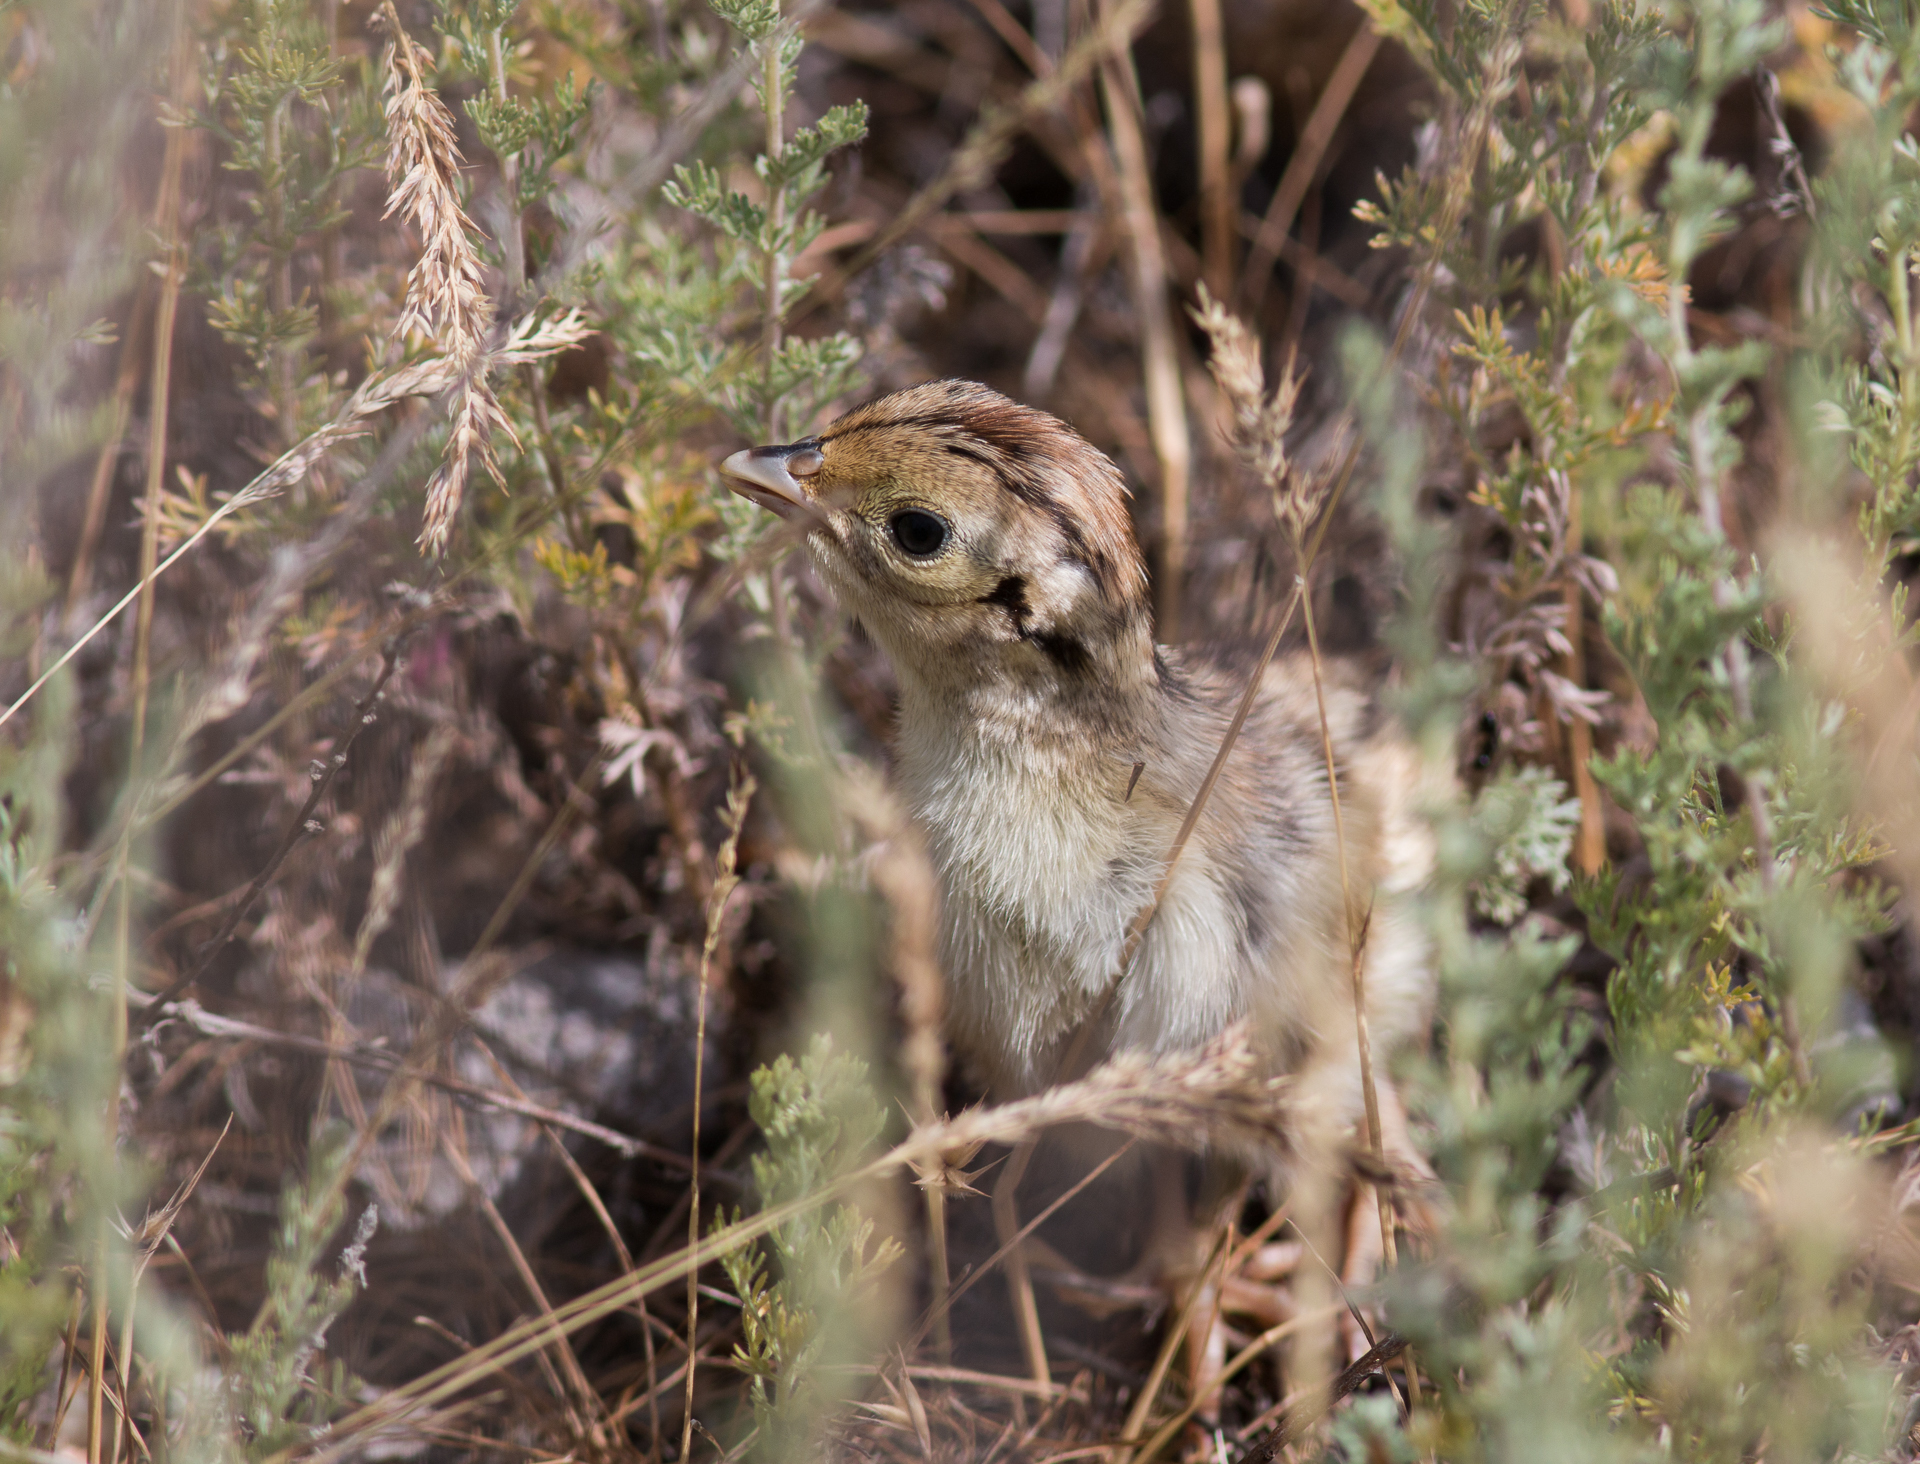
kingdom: Animalia
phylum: Chordata
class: Aves
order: Galliformes
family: Phasianidae
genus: Phasianus
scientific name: Phasianus colchicus
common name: Common pheasant
